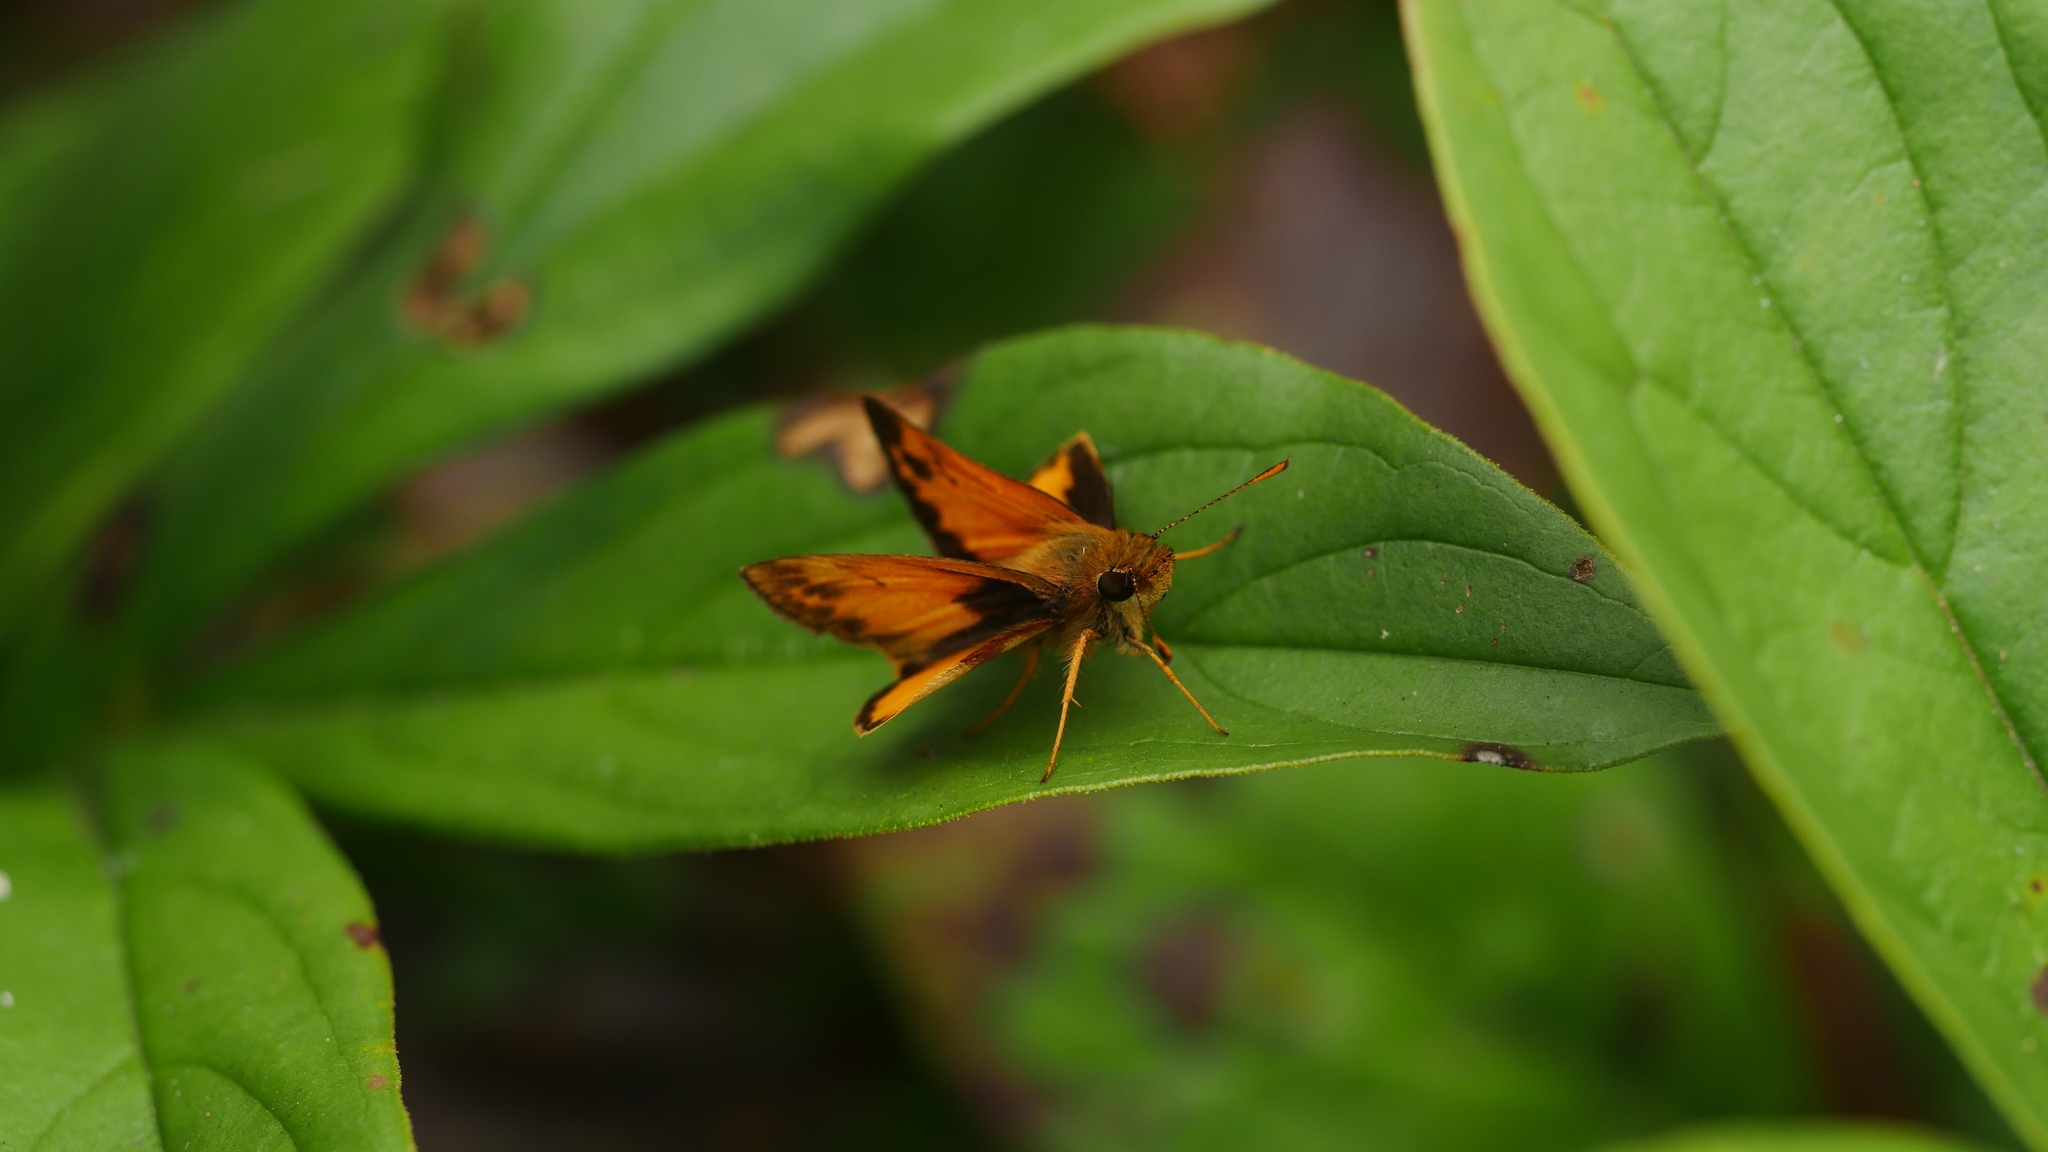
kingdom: Animalia
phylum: Arthropoda
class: Insecta
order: Lepidoptera
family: Hesperiidae
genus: Lon
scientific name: Lon zabulon
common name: Zabulon skipper
